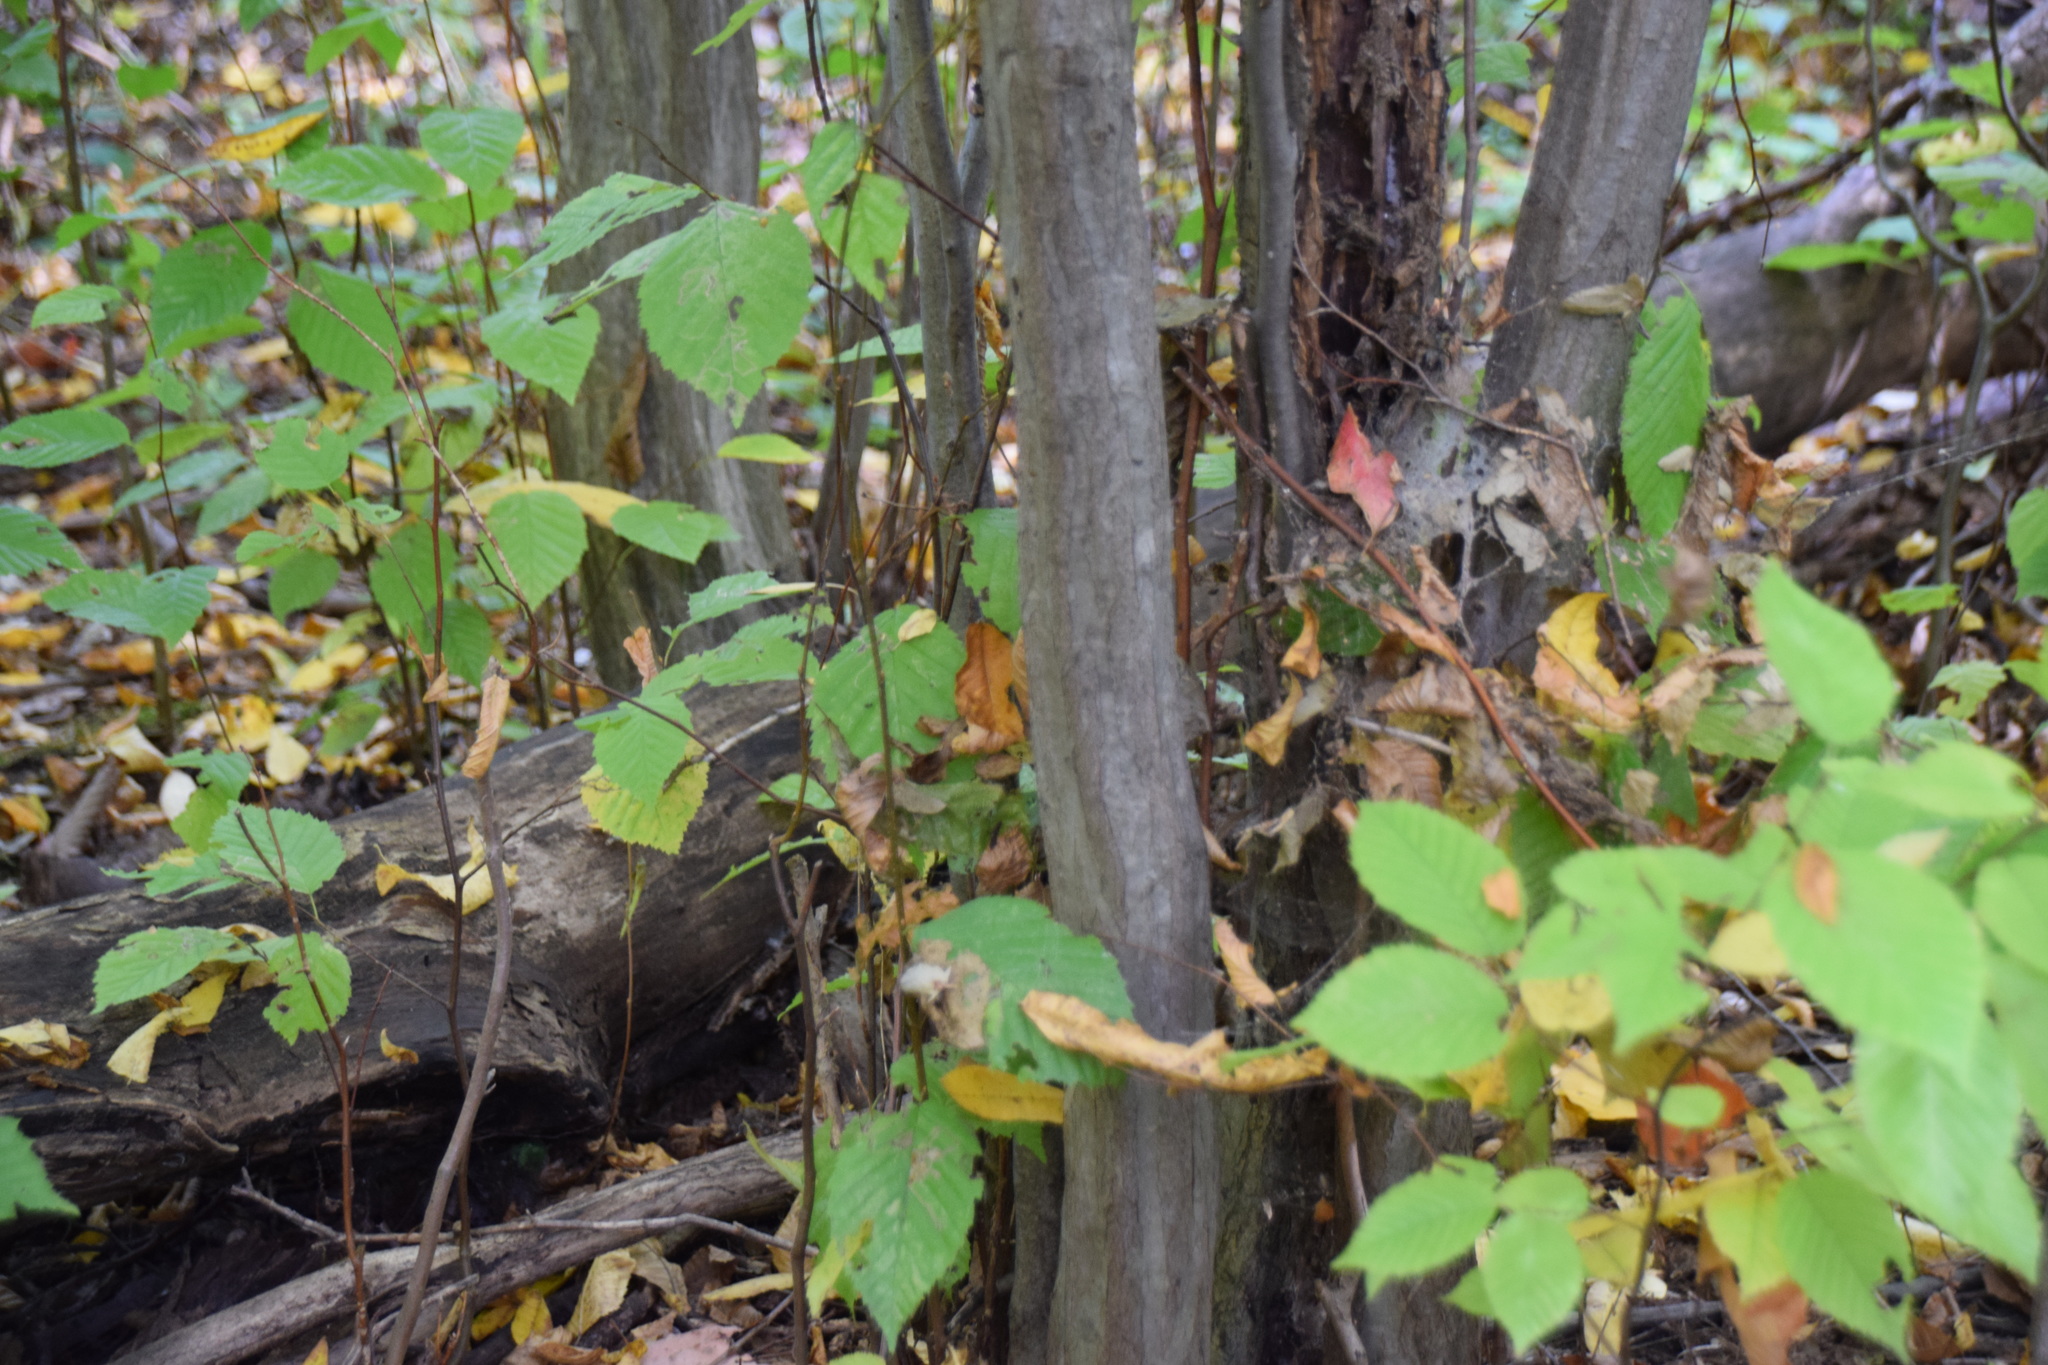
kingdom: Plantae
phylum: Tracheophyta
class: Magnoliopsida
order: Fagales
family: Betulaceae
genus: Carpinus
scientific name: Carpinus caroliniana
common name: American hornbeam
